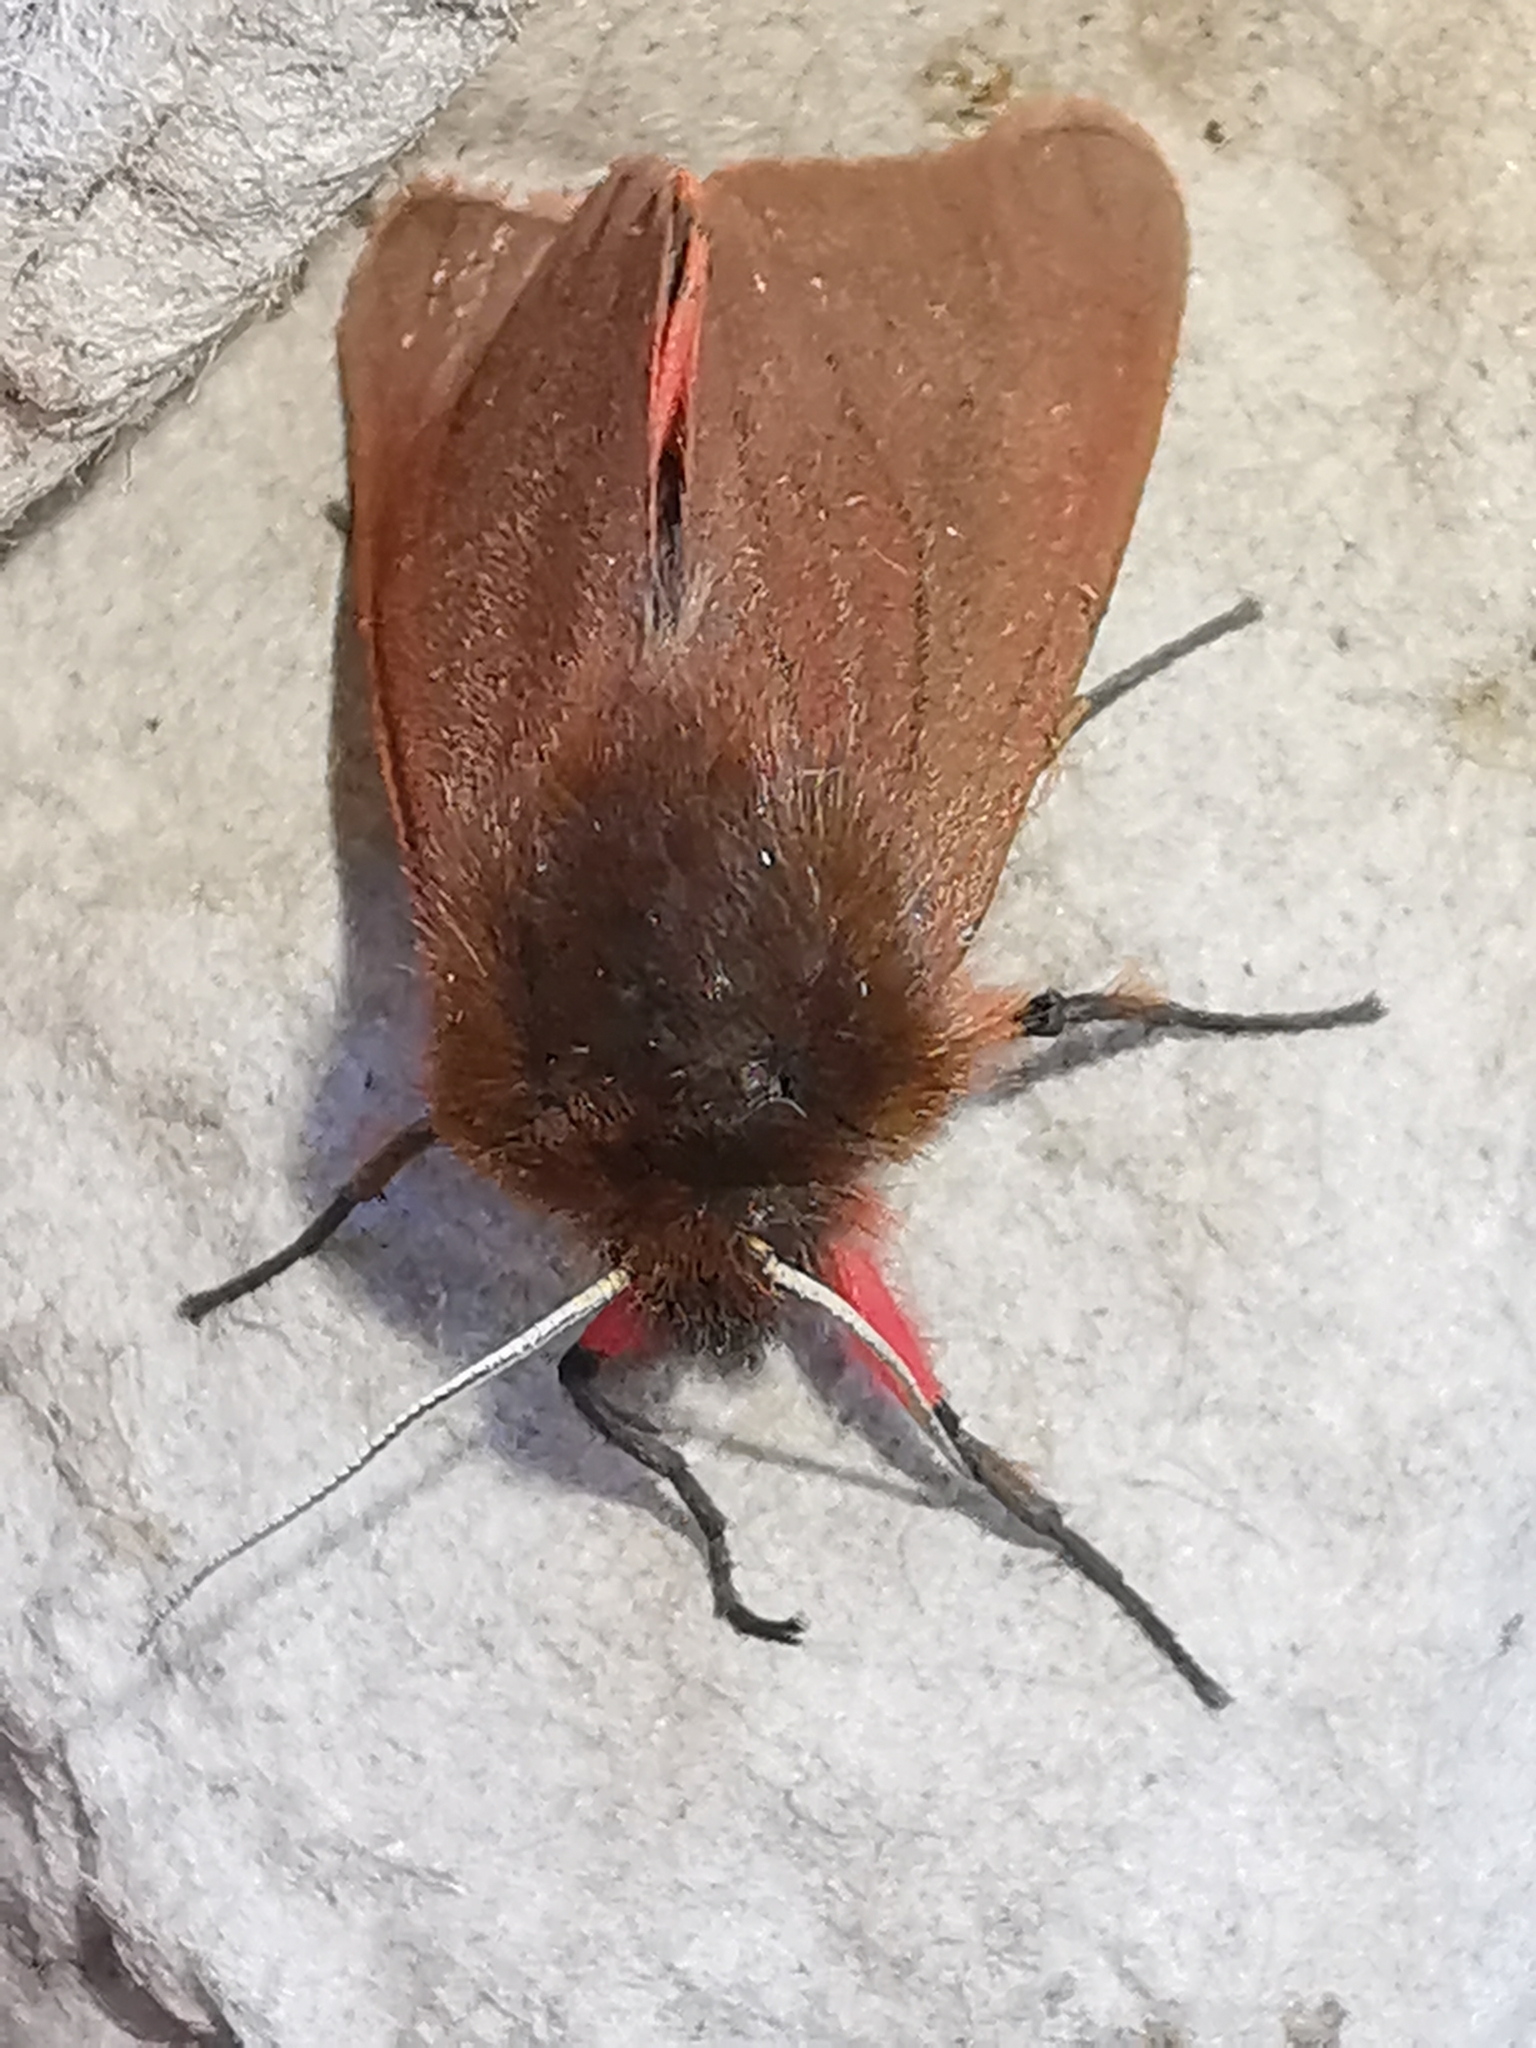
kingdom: Animalia
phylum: Arthropoda
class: Insecta
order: Lepidoptera
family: Erebidae
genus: Phragmatobia
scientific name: Phragmatobia fuliginosa
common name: Ruby tiger
